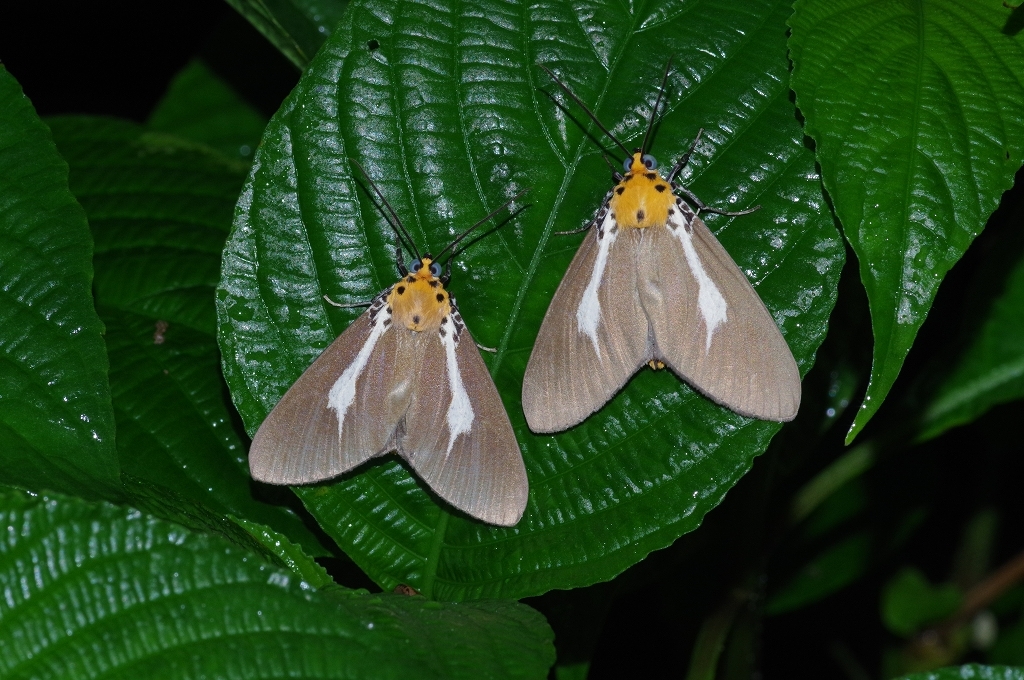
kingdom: Animalia
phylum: Arthropoda
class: Insecta
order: Lepidoptera
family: Erebidae
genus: Asota
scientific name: Asota heliconia
